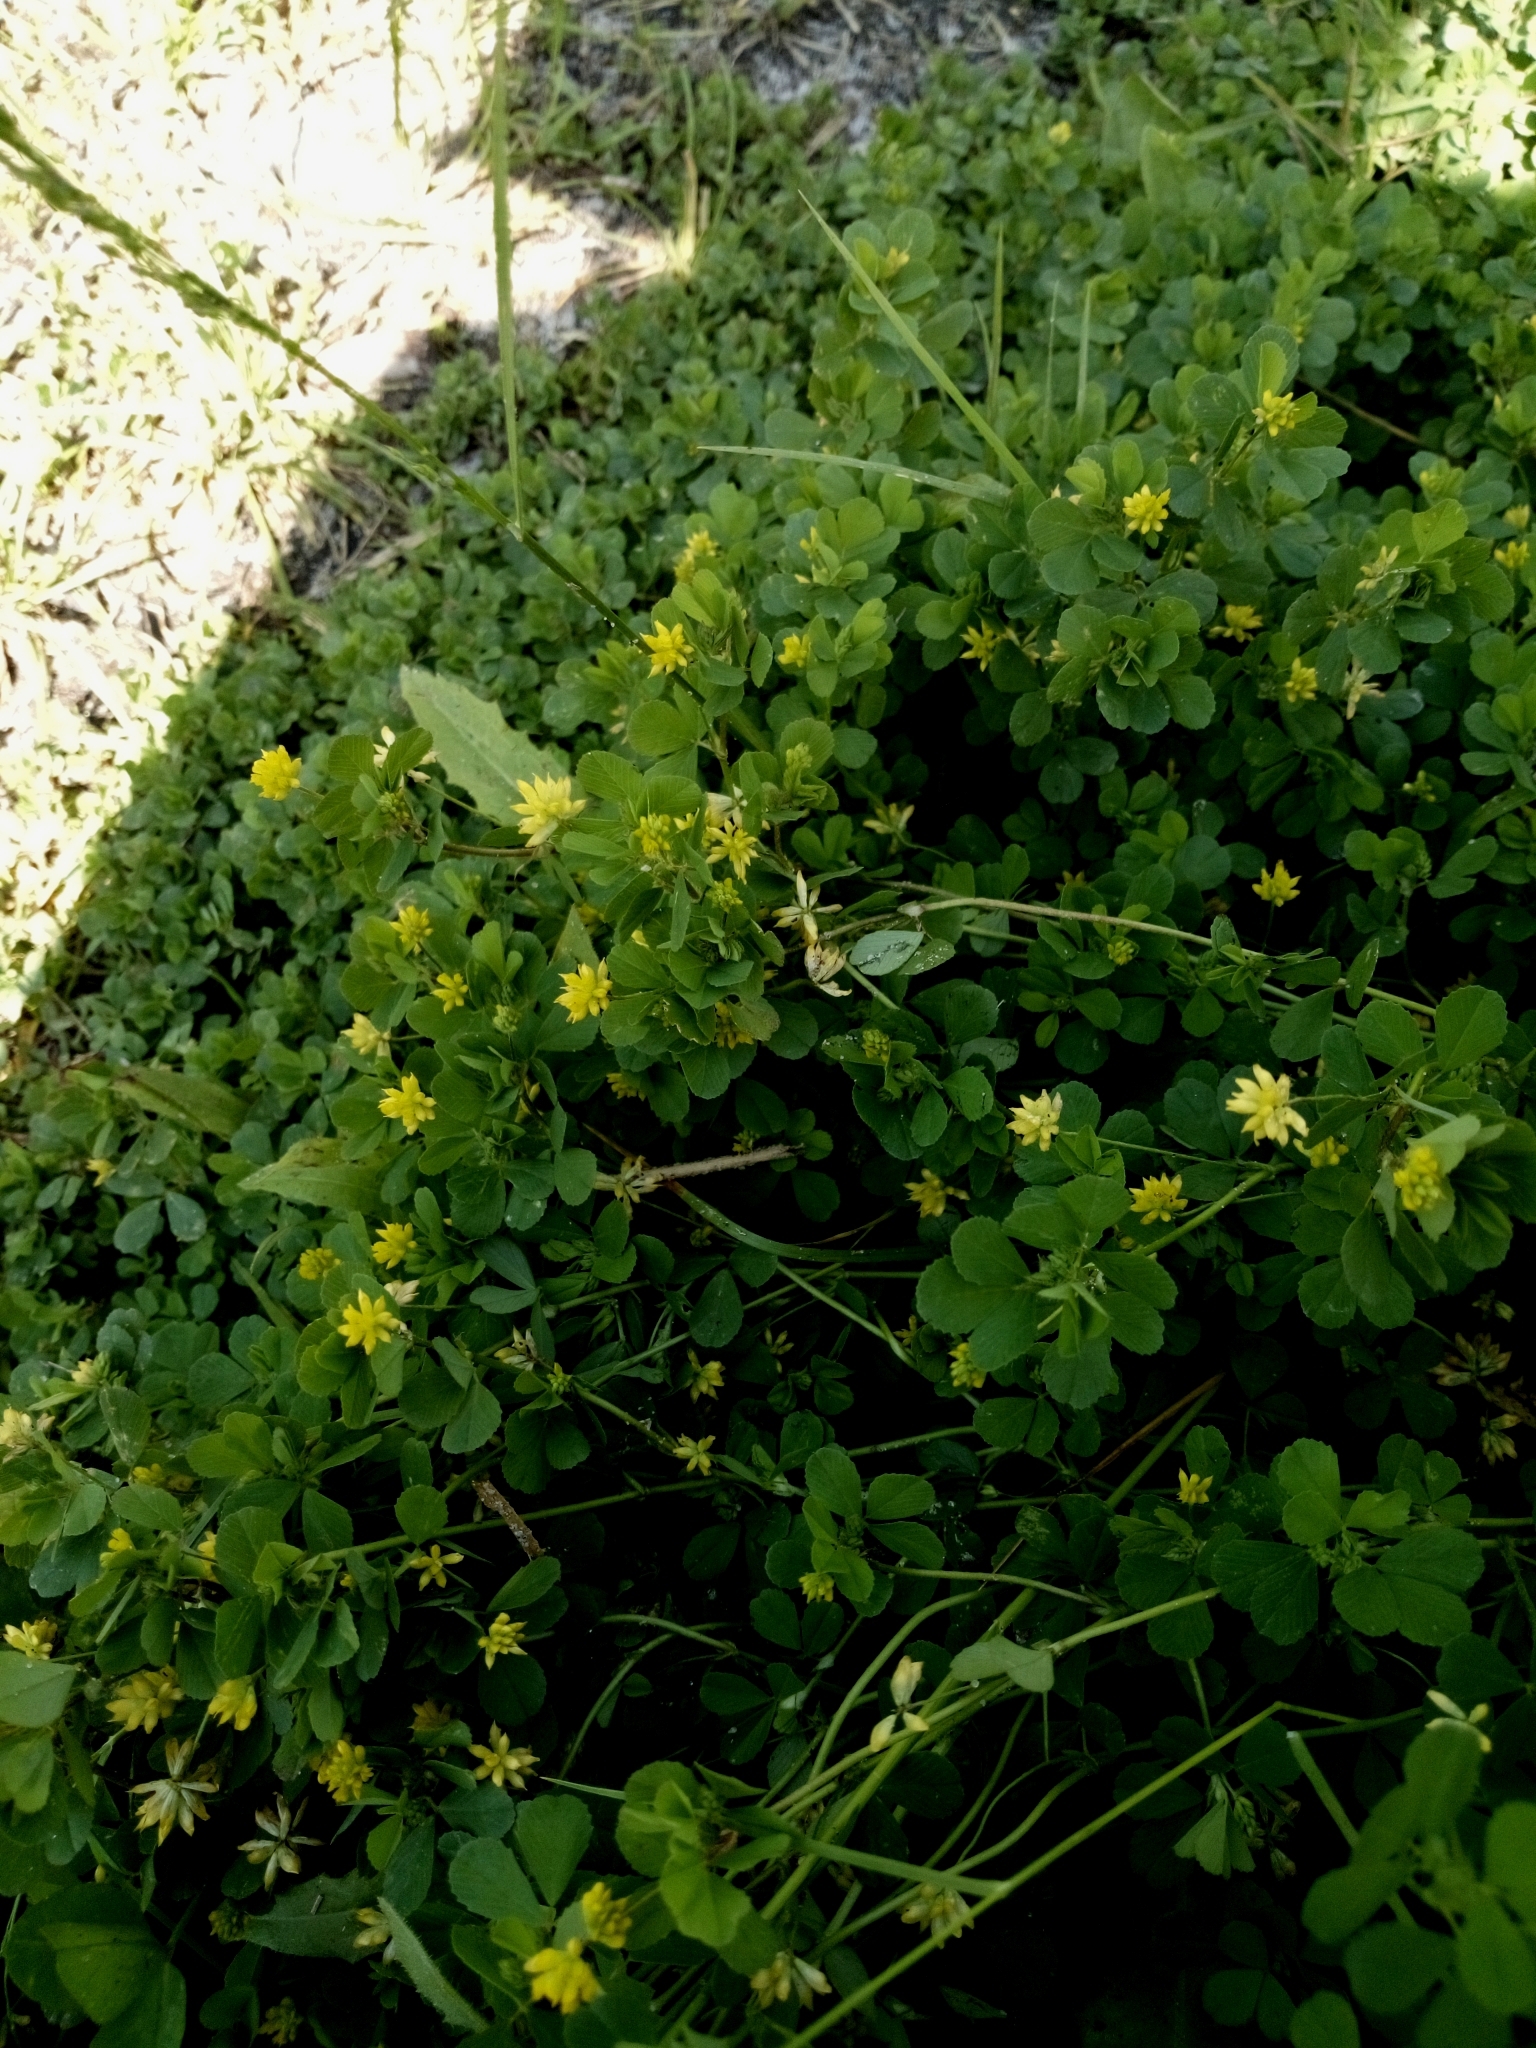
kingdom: Plantae
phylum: Tracheophyta
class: Magnoliopsida
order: Fabales
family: Fabaceae
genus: Trifolium
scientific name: Trifolium dubium
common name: Suckling clover
